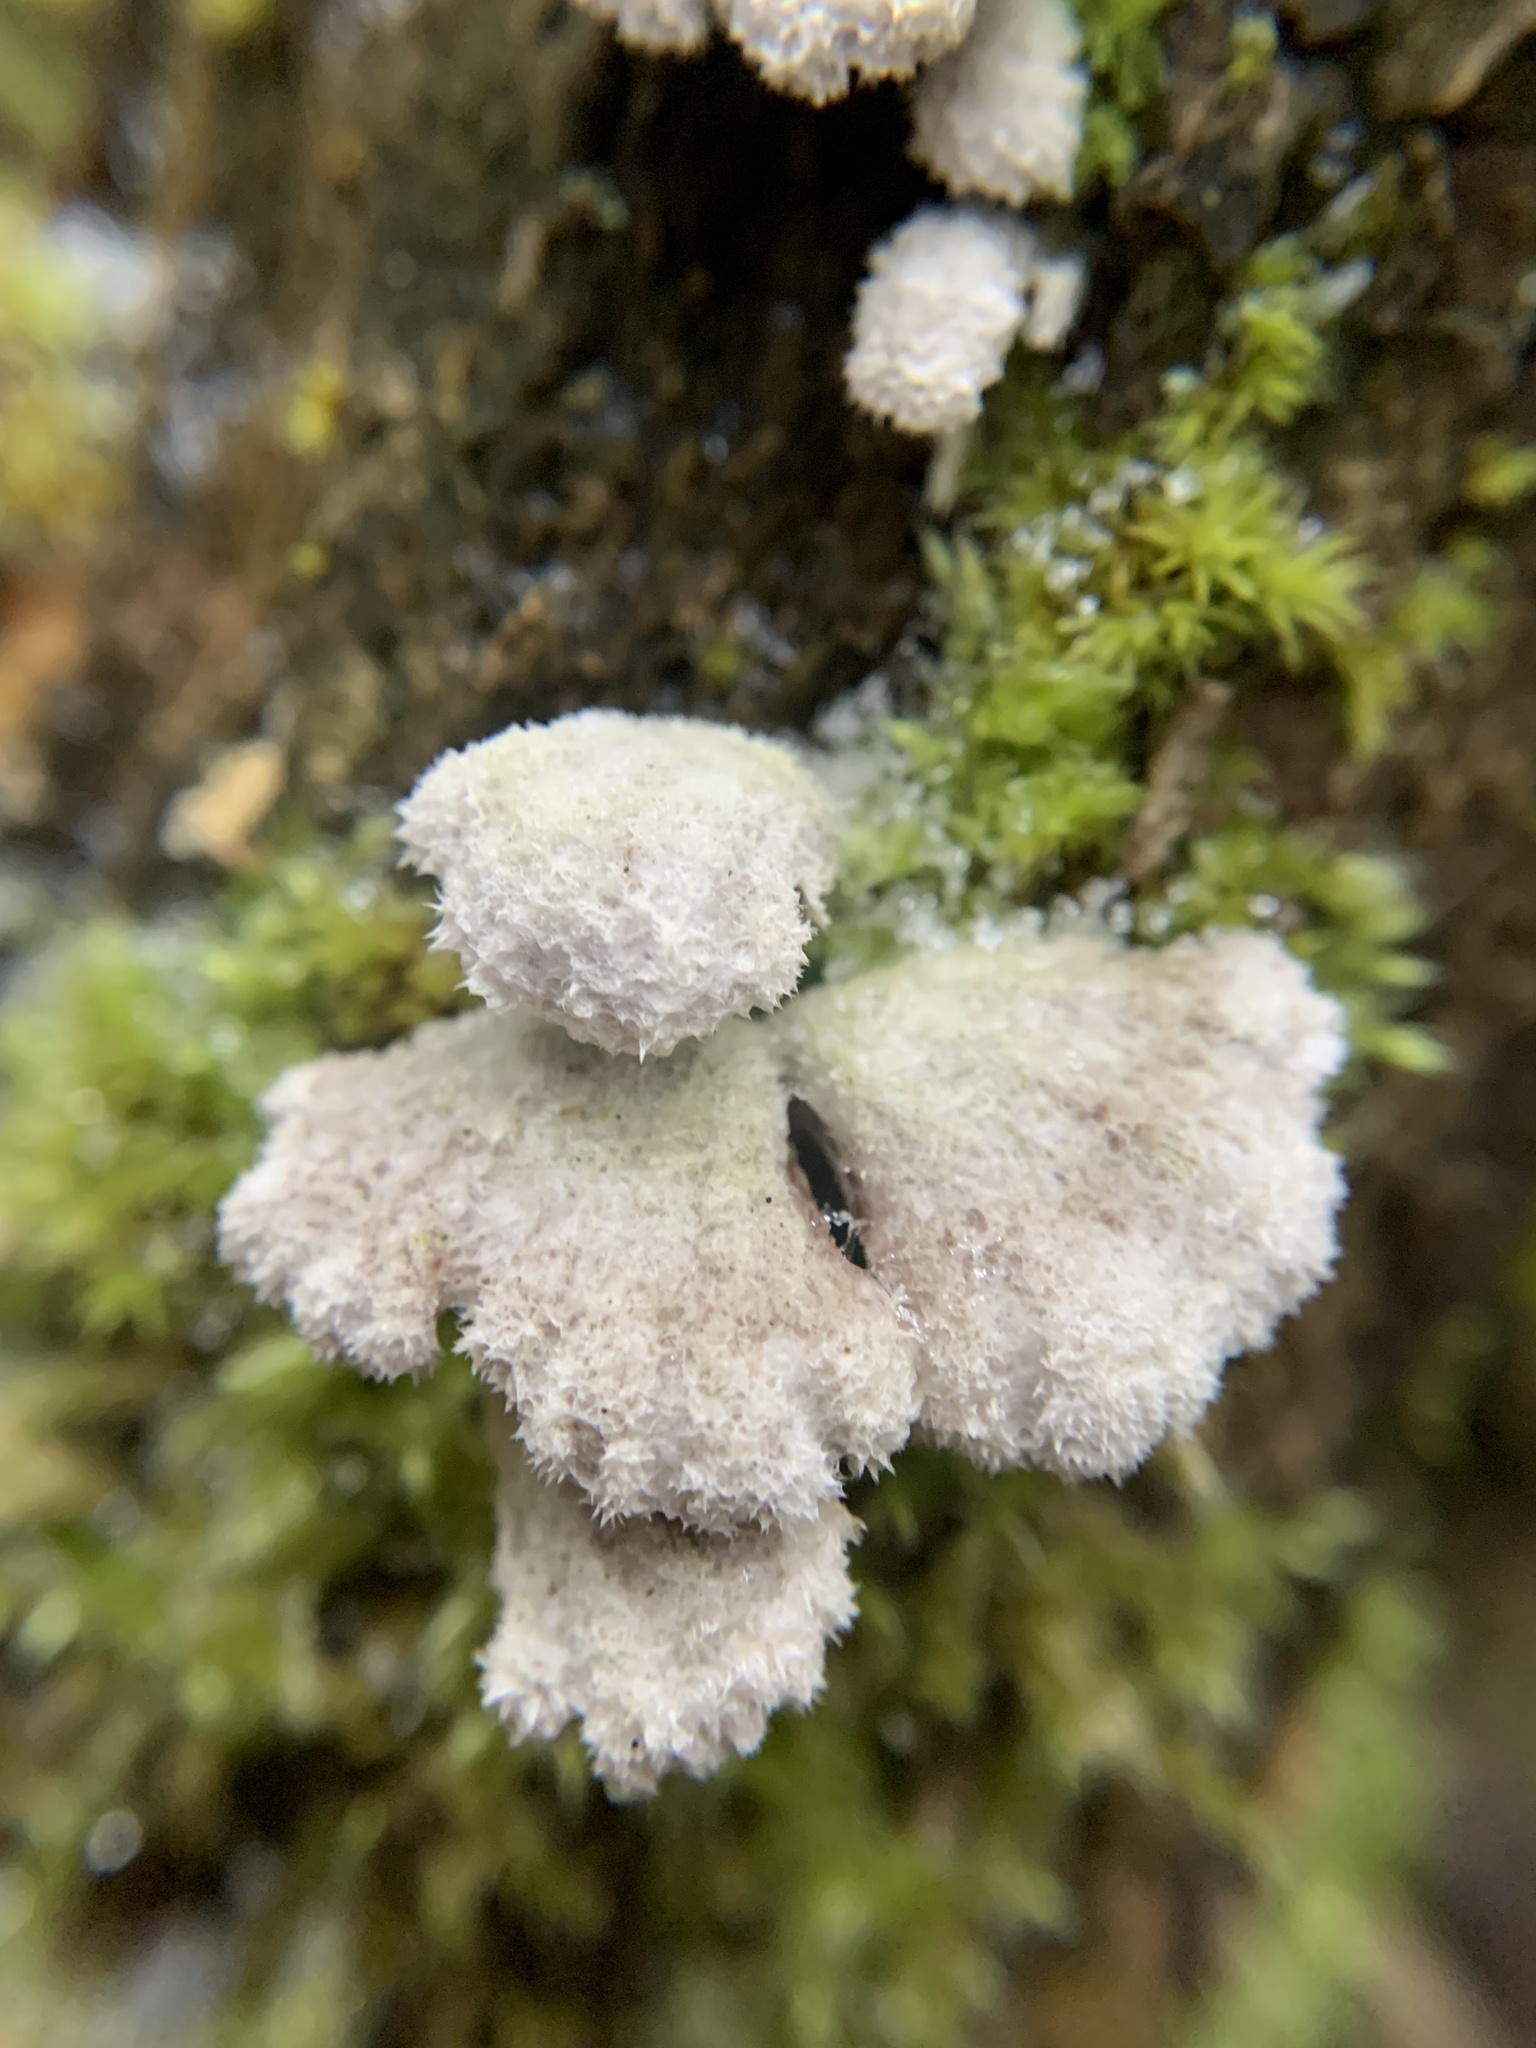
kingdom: Fungi
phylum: Basidiomycota
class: Agaricomycetes
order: Agaricales
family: Schizophyllaceae
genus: Schizophyllum
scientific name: Schizophyllum commune
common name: Common porecrust
